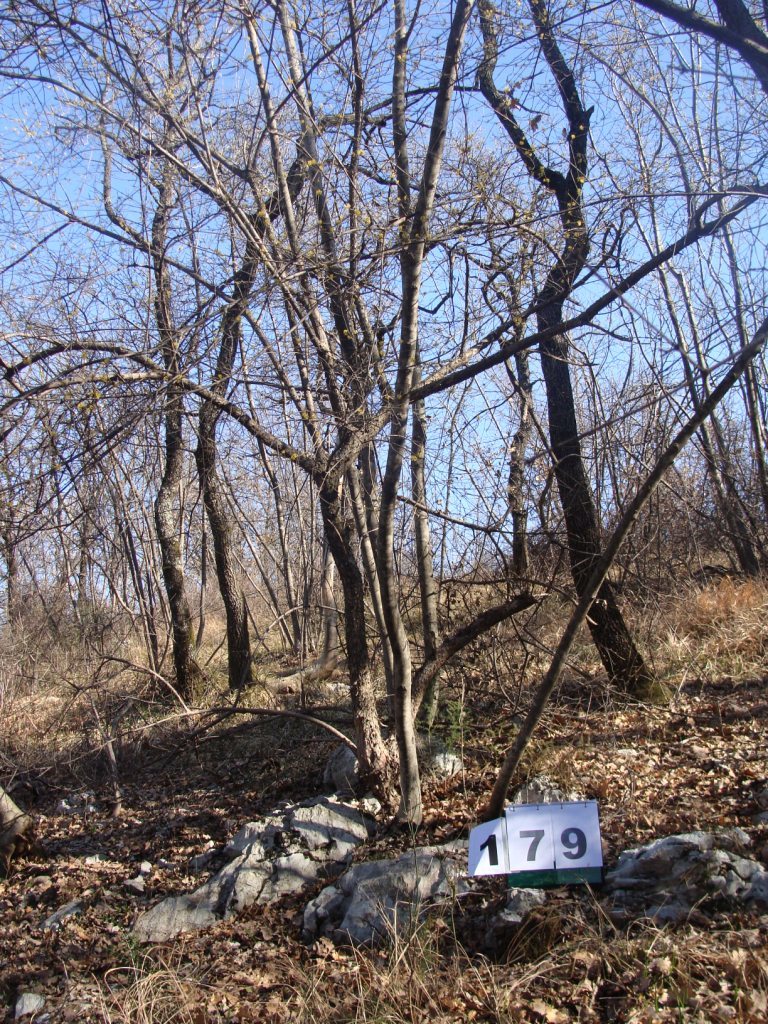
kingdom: Plantae
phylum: Tracheophyta
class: Magnoliopsida
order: Cornales
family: Cornaceae
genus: Cornus
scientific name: Cornus mas
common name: Cornelian-cherry
